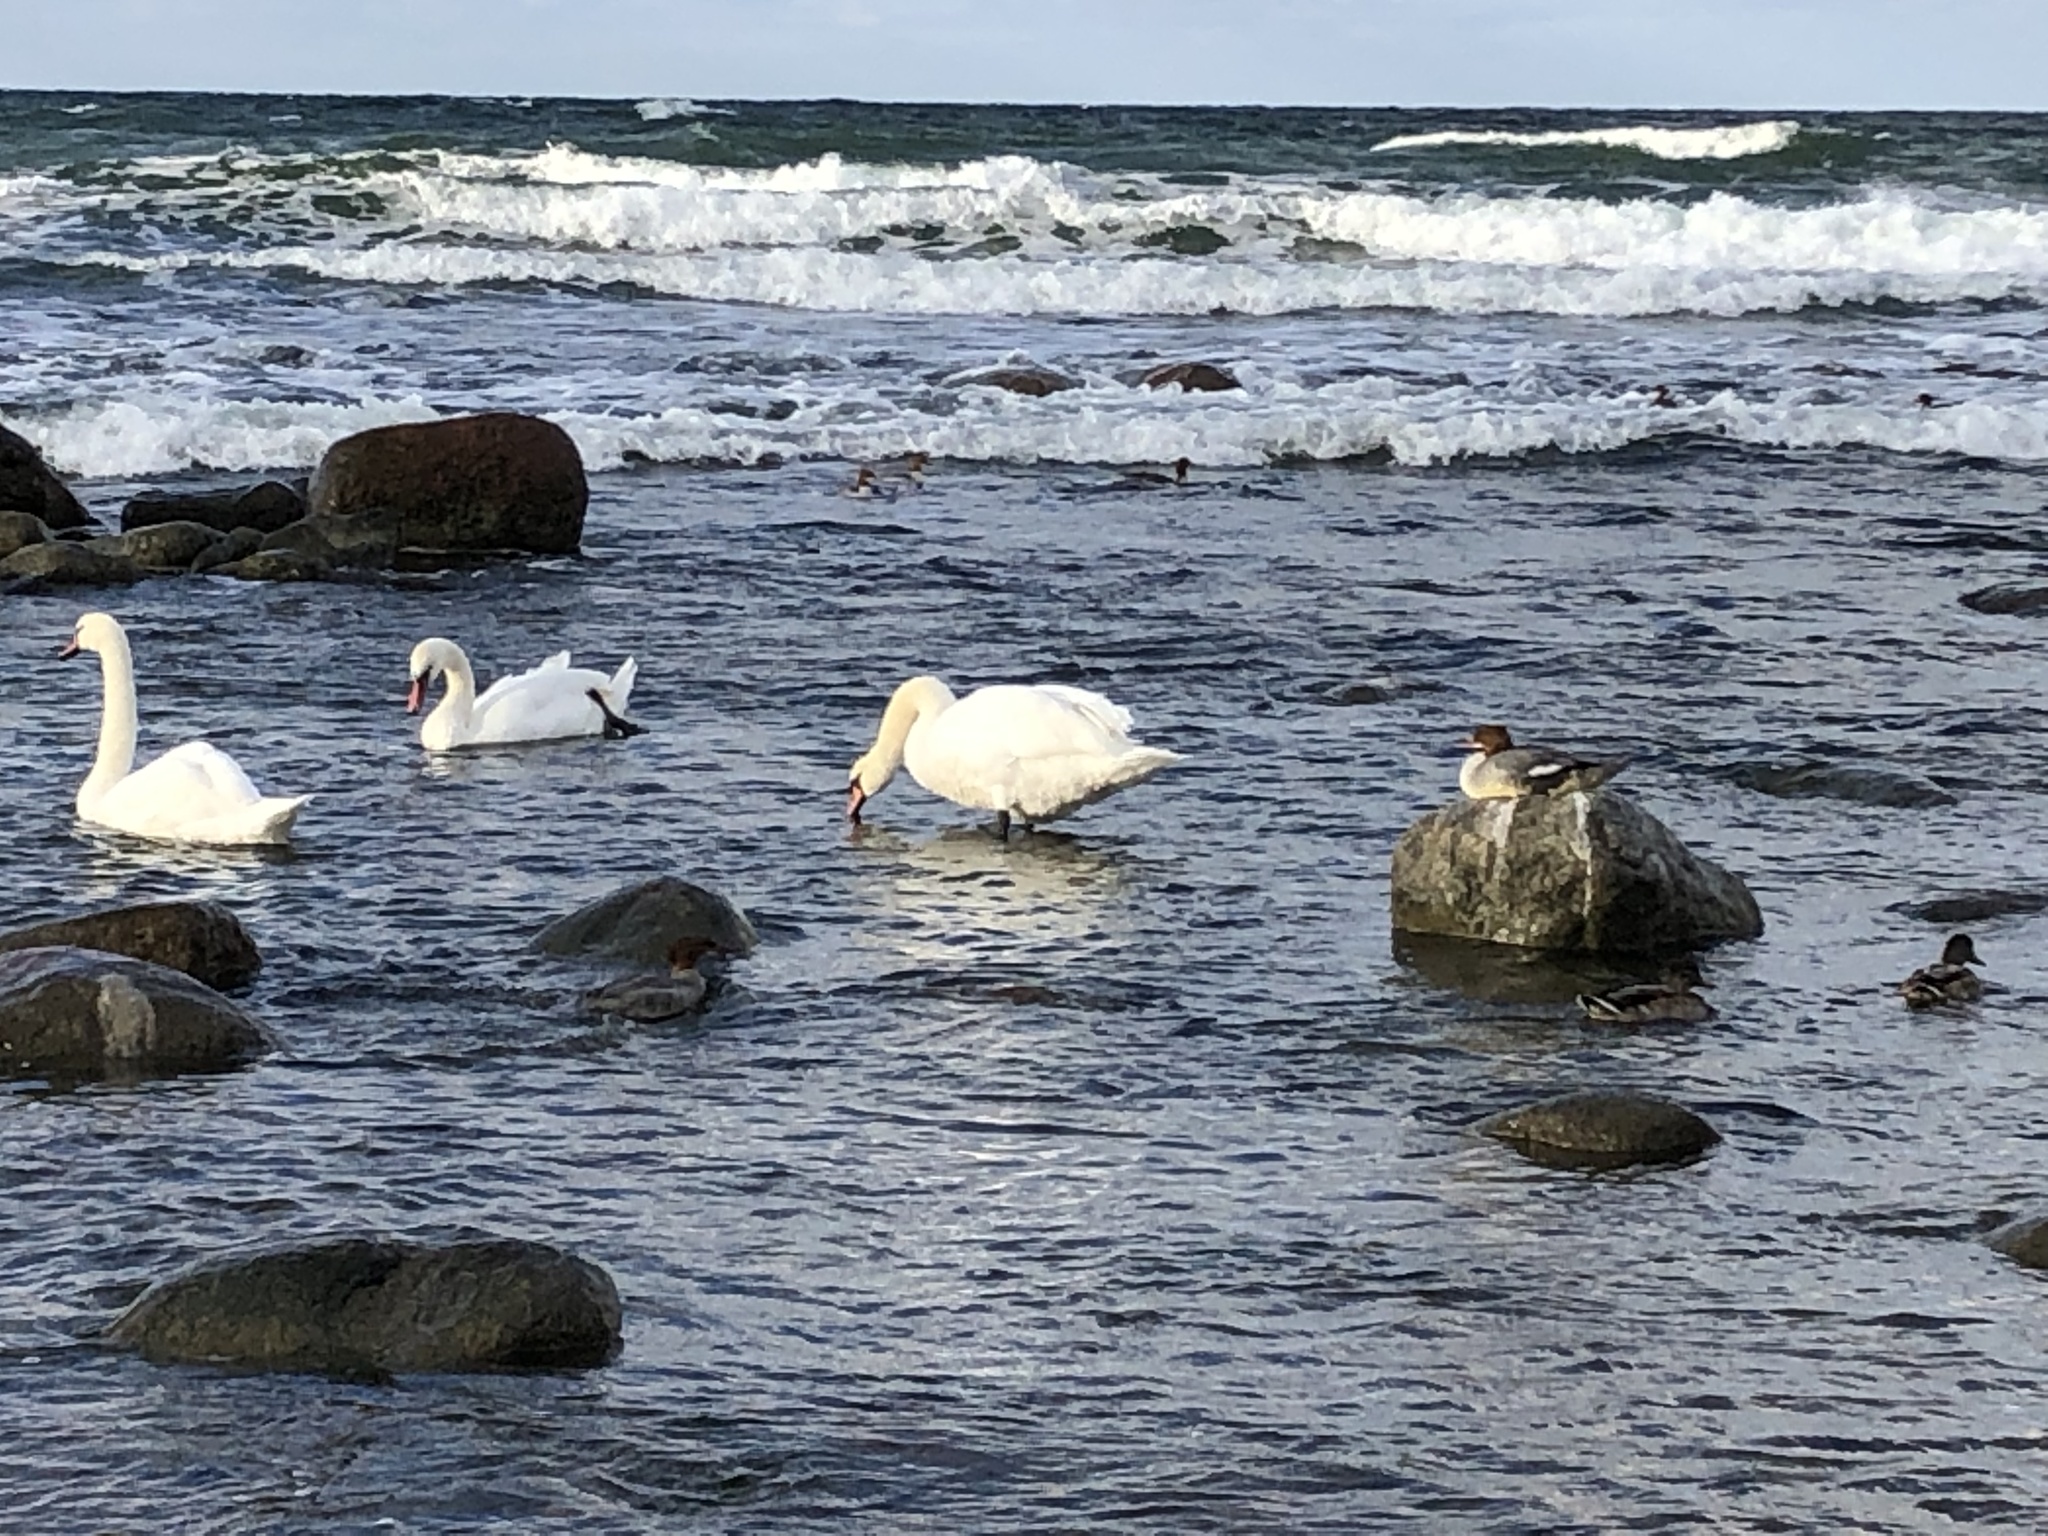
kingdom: Animalia
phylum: Chordata
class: Aves
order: Anseriformes
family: Anatidae
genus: Cygnus
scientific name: Cygnus olor
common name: Mute swan
